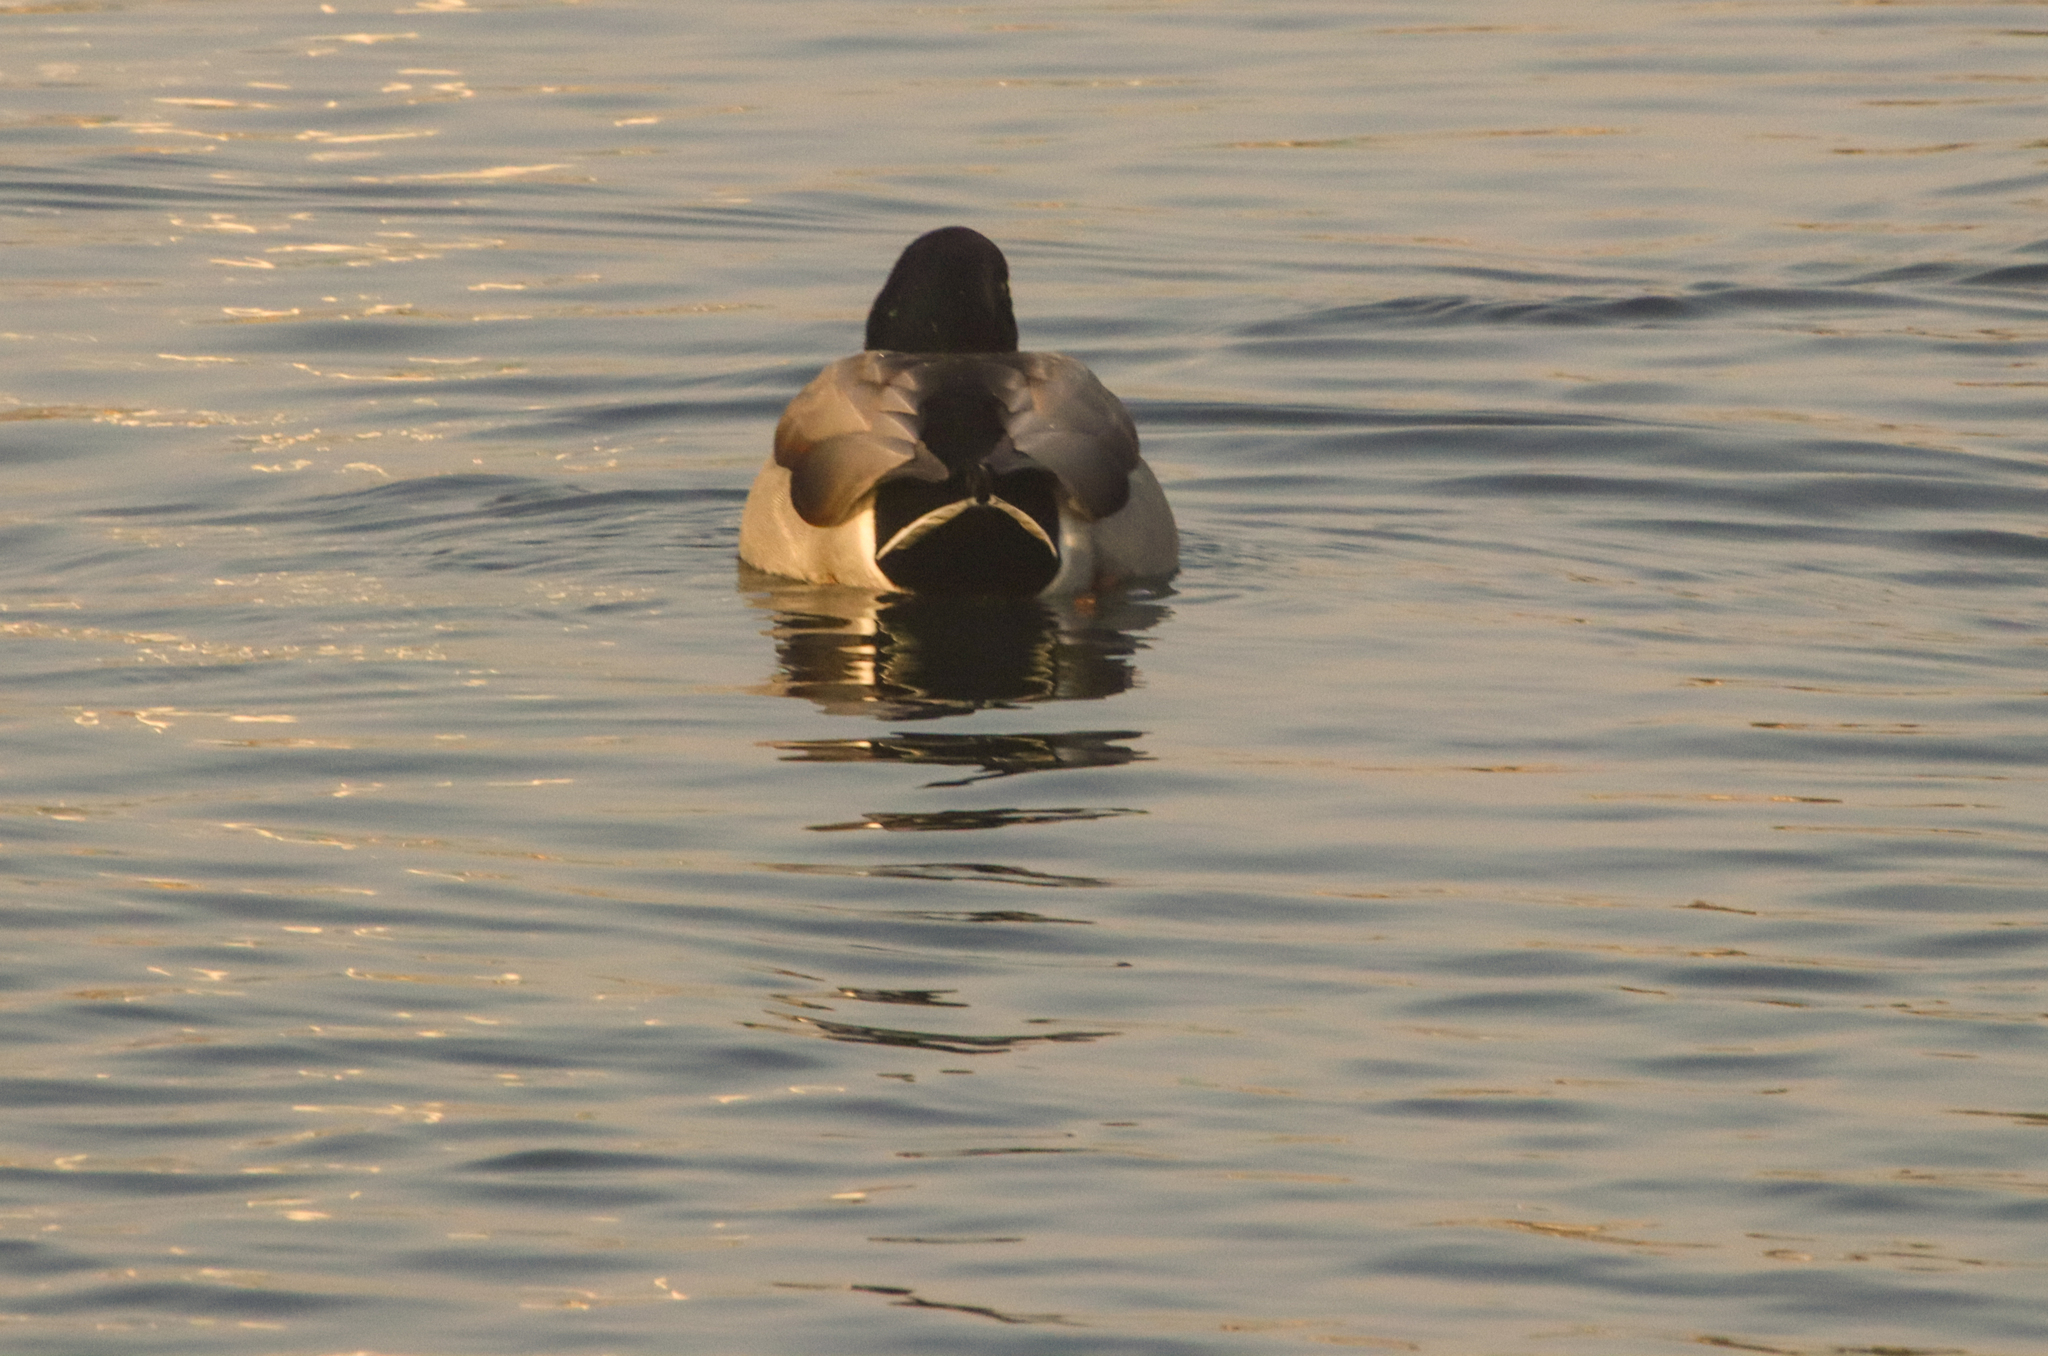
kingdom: Animalia
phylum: Chordata
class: Aves
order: Anseriformes
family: Anatidae
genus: Anas
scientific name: Anas platyrhynchos
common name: Mallard
